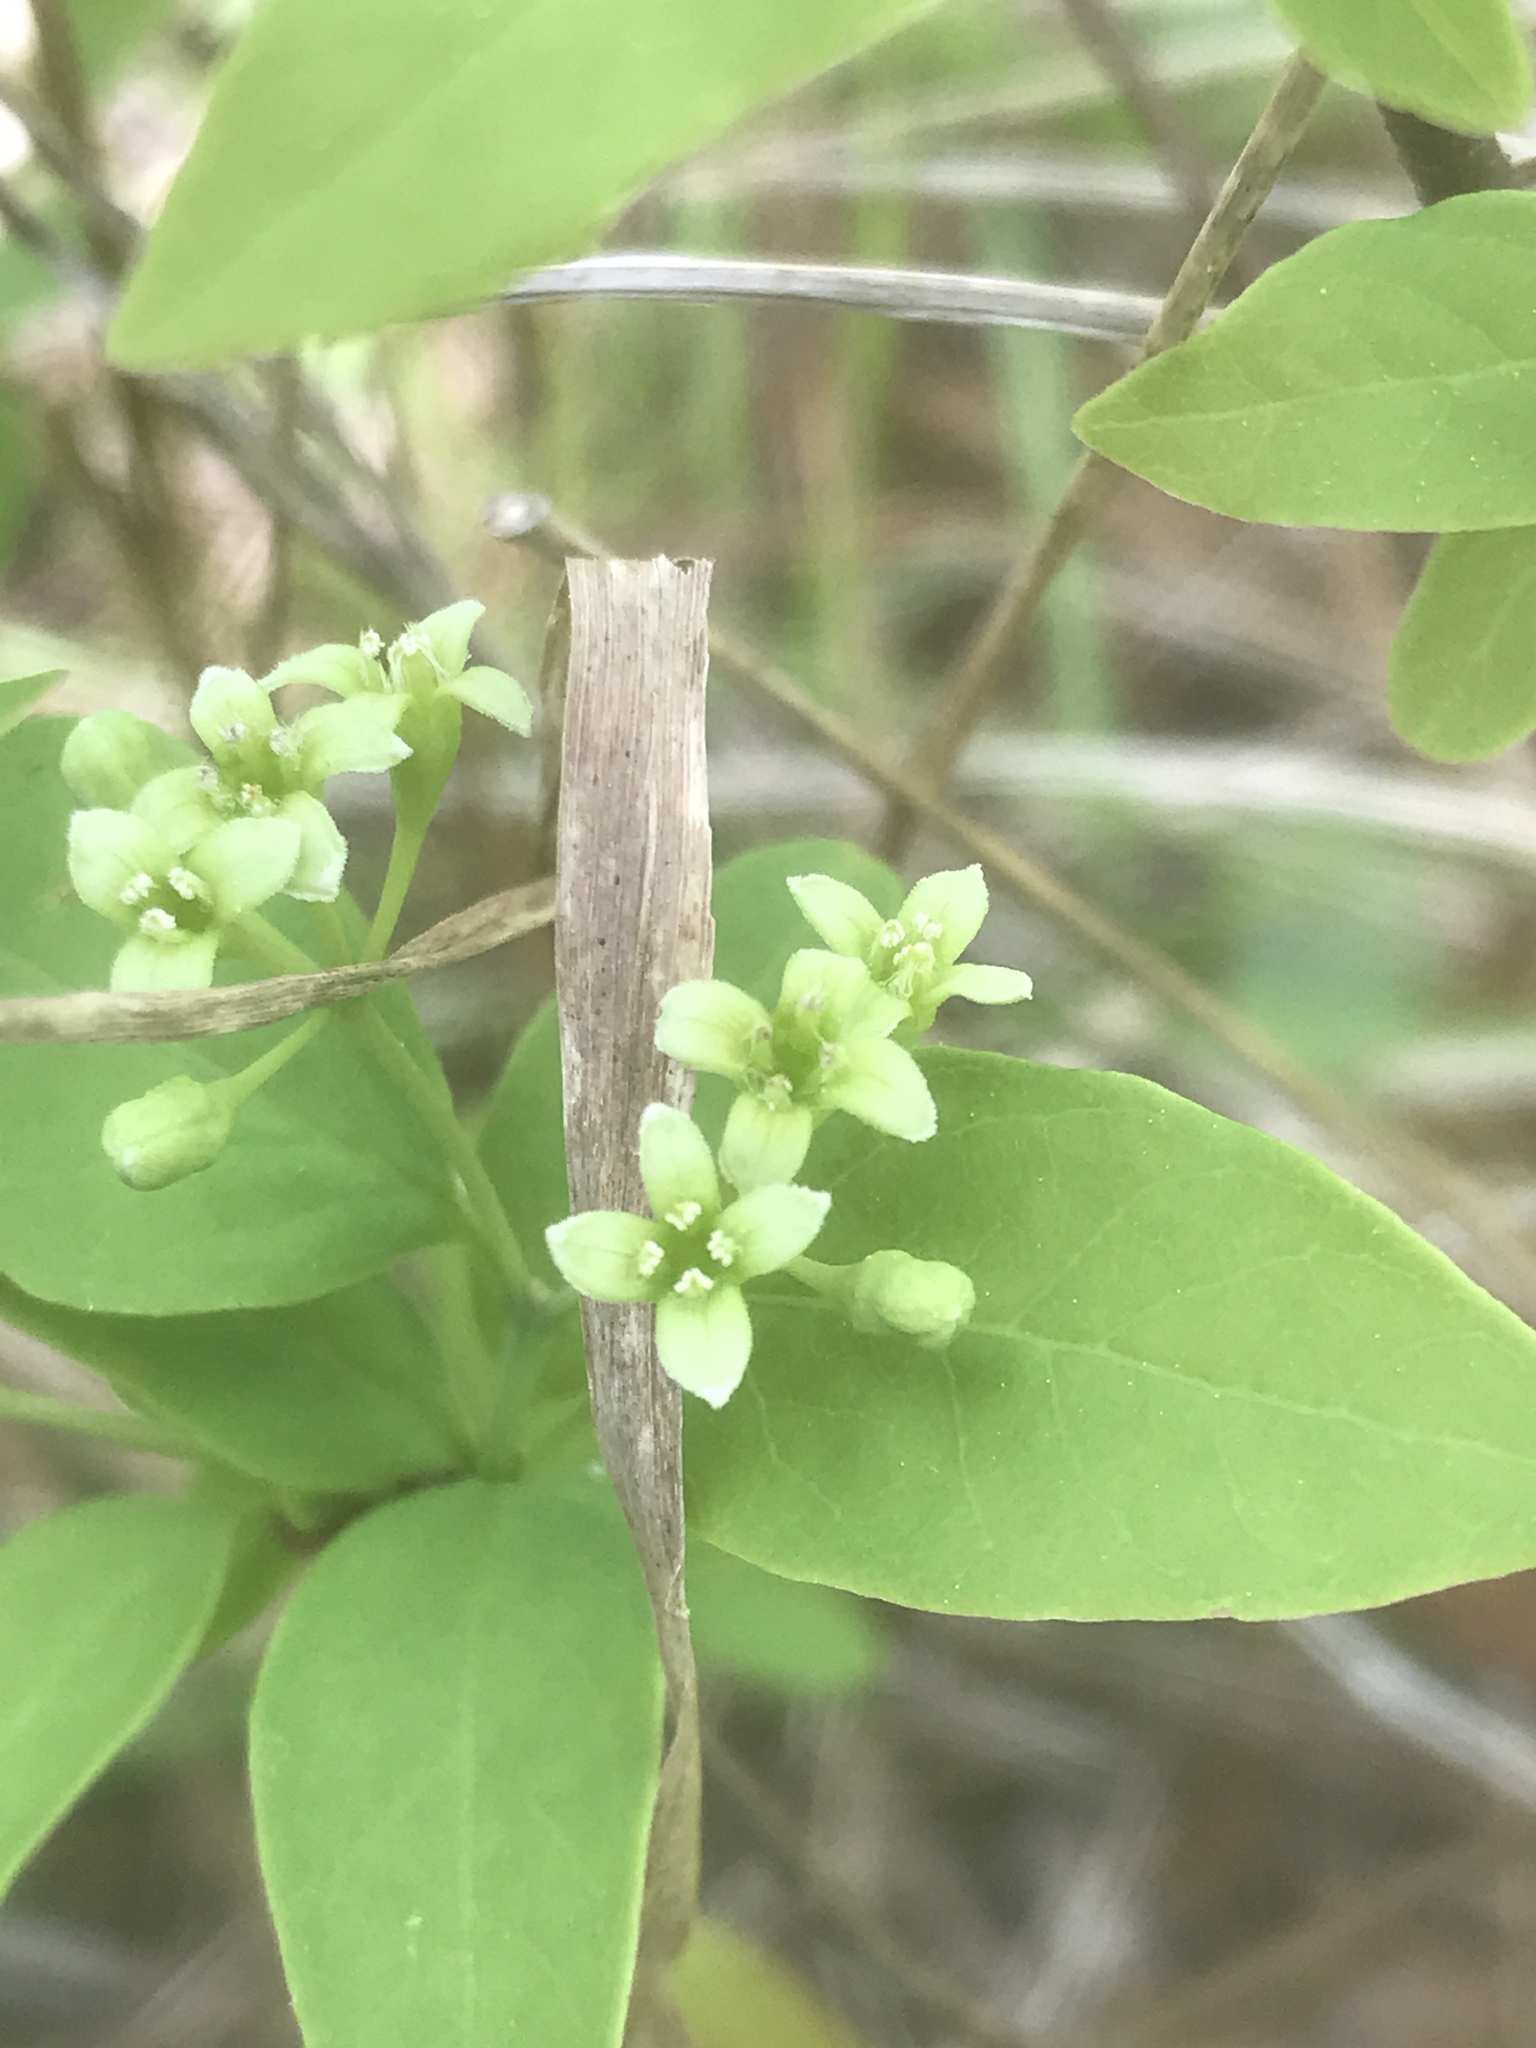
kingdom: Plantae
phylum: Tracheophyta
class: Magnoliopsida
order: Santalales
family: Santalaceae
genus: Nestronia
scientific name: Nestronia umbellula
